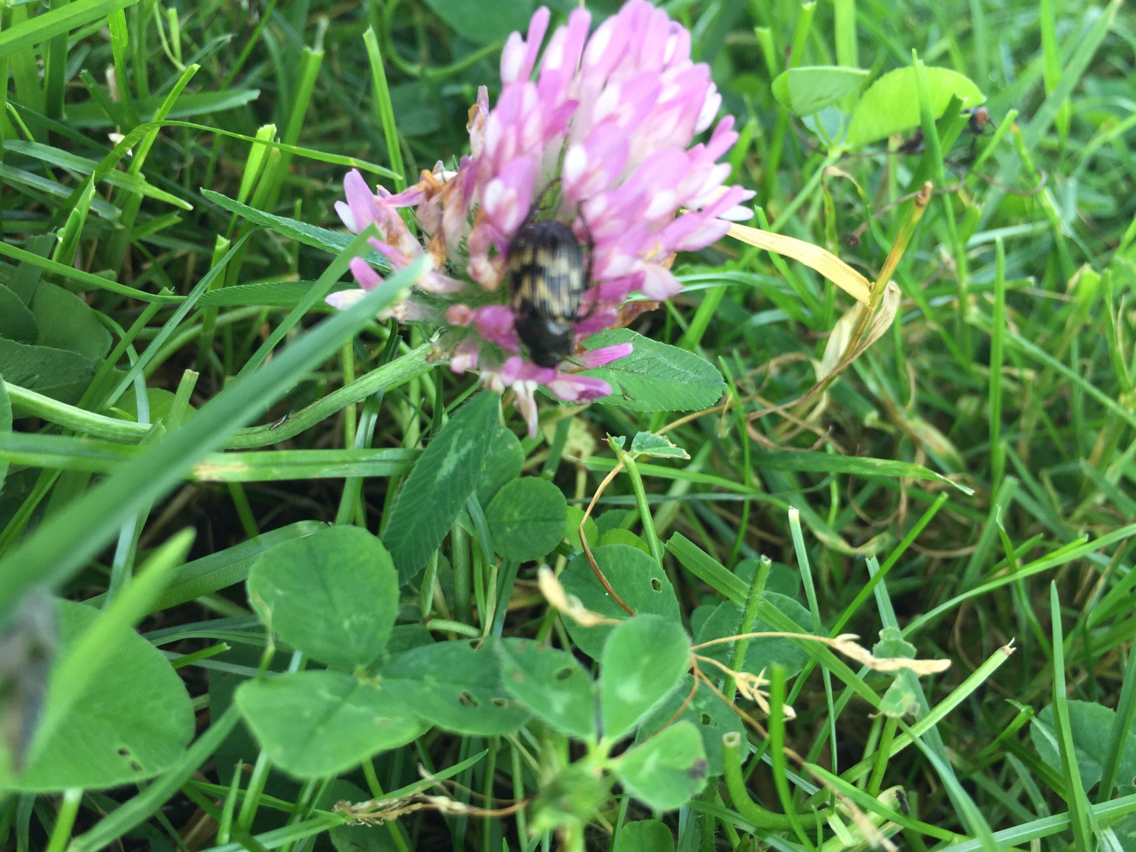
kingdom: Animalia
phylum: Arthropoda
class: Insecta
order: Coleoptera
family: Scarabaeidae
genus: Exomala
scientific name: Exomala orientalis
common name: Oriental beetle
